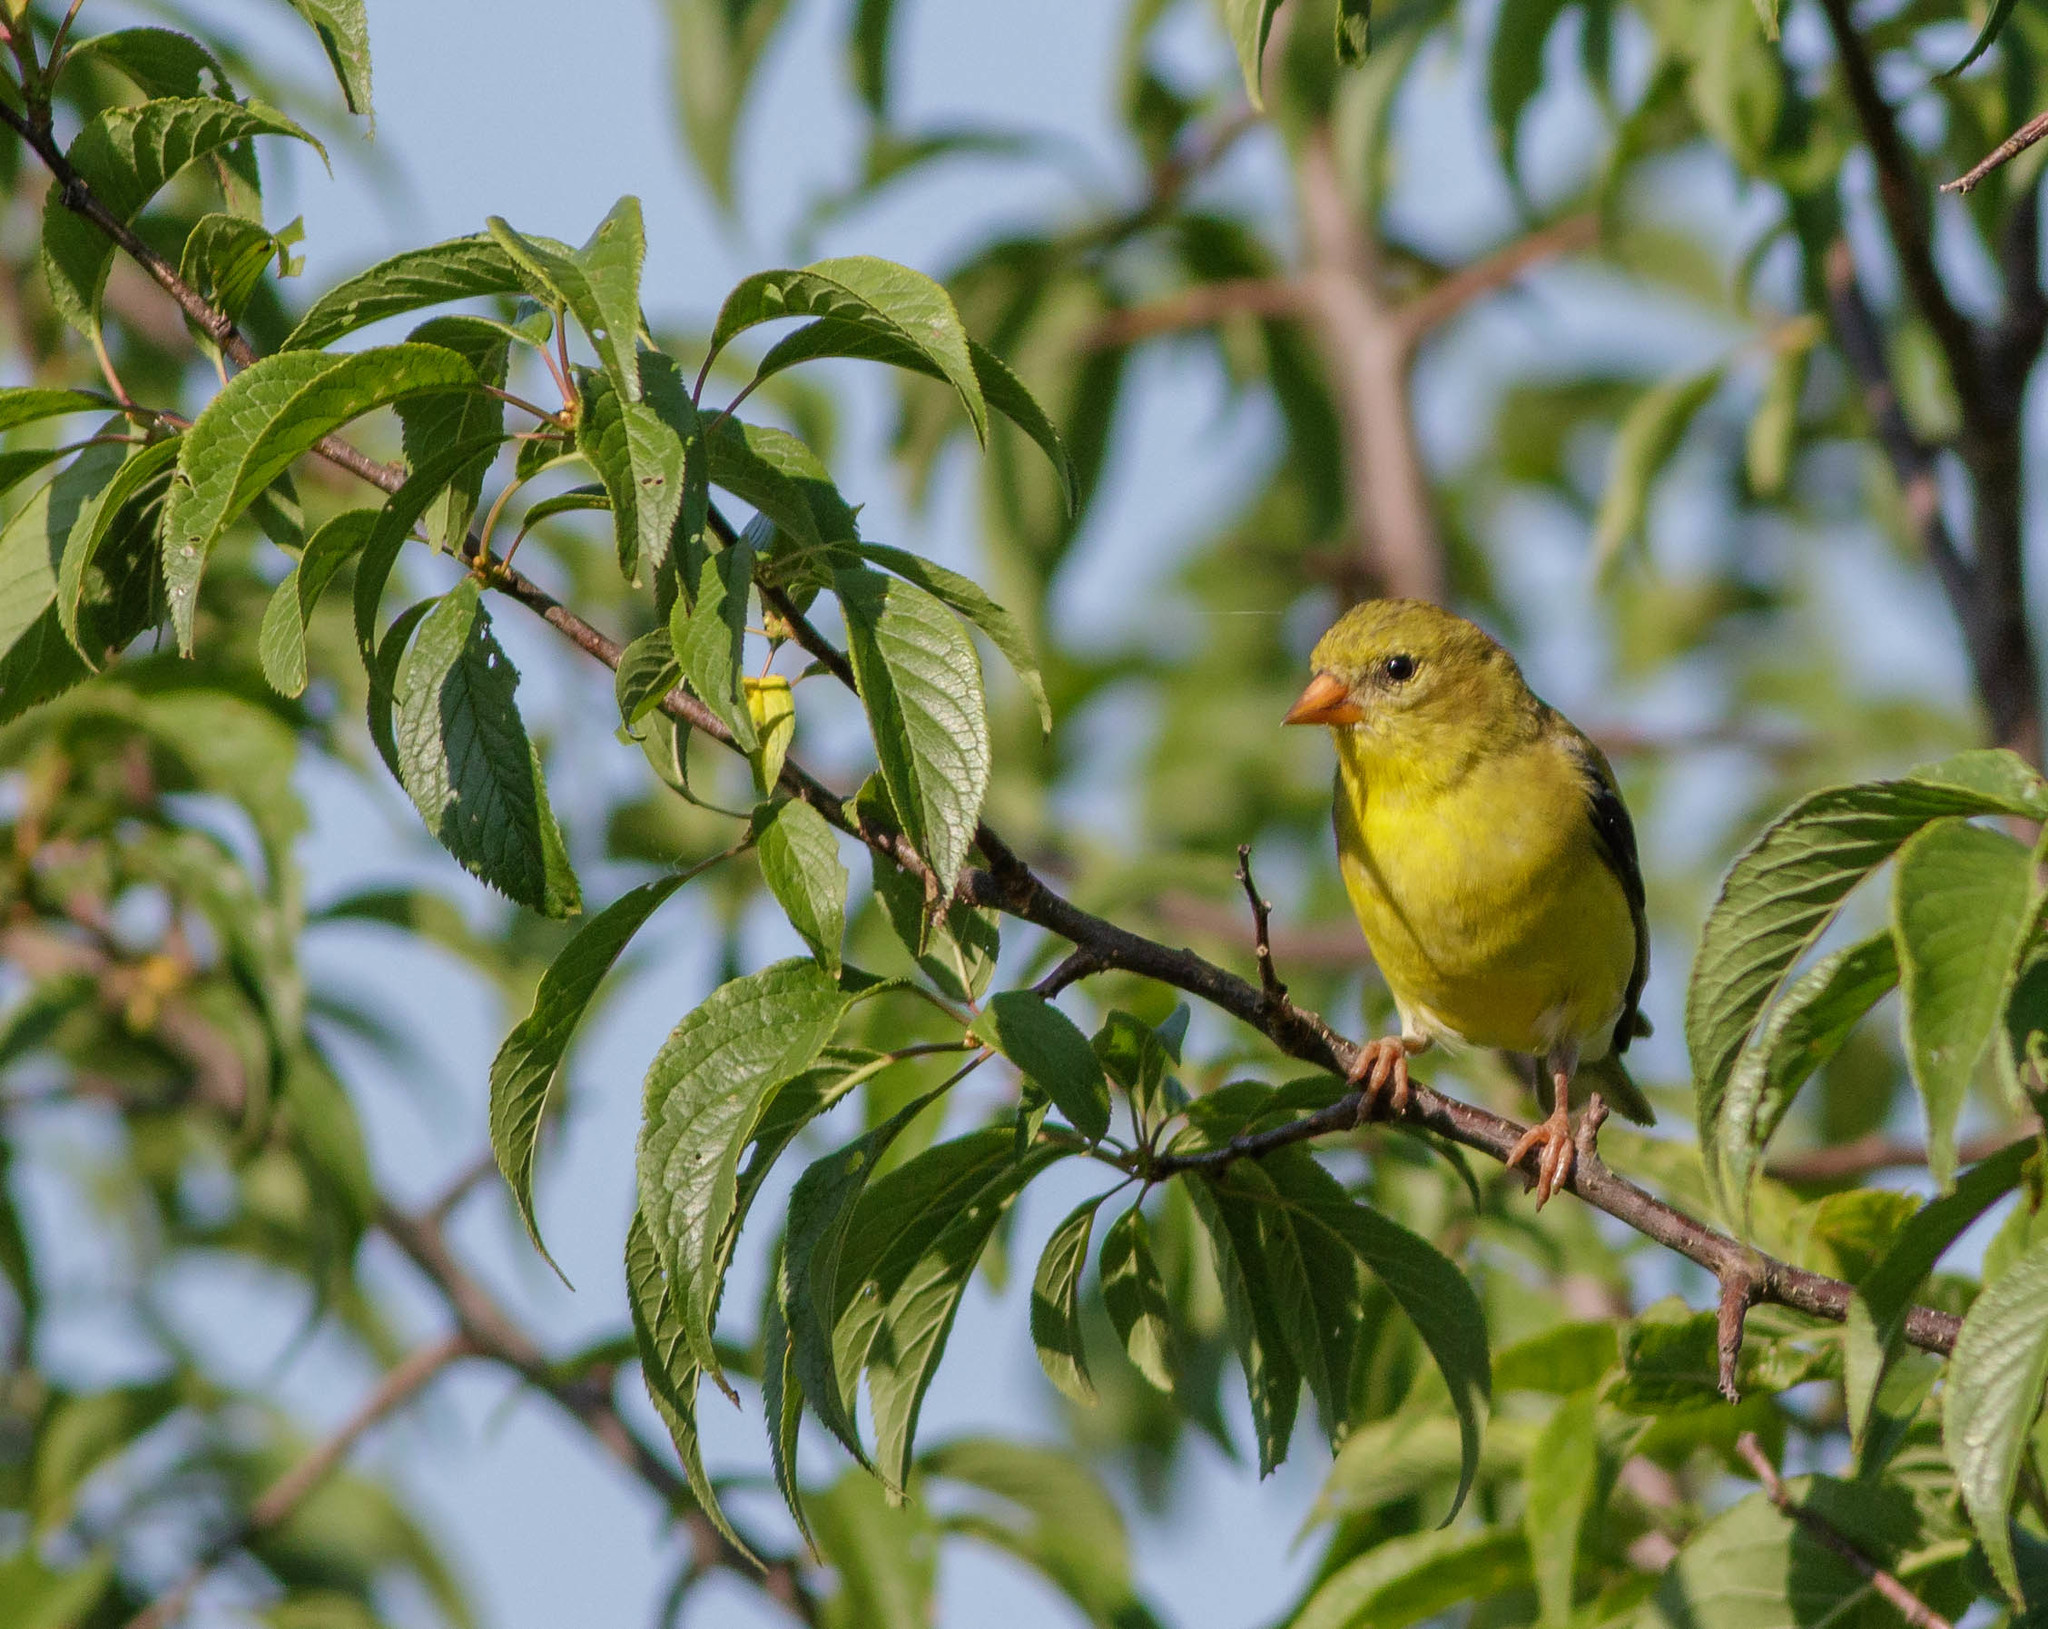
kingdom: Animalia
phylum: Chordata
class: Aves
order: Passeriformes
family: Fringillidae
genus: Spinus
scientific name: Spinus tristis
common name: American goldfinch
